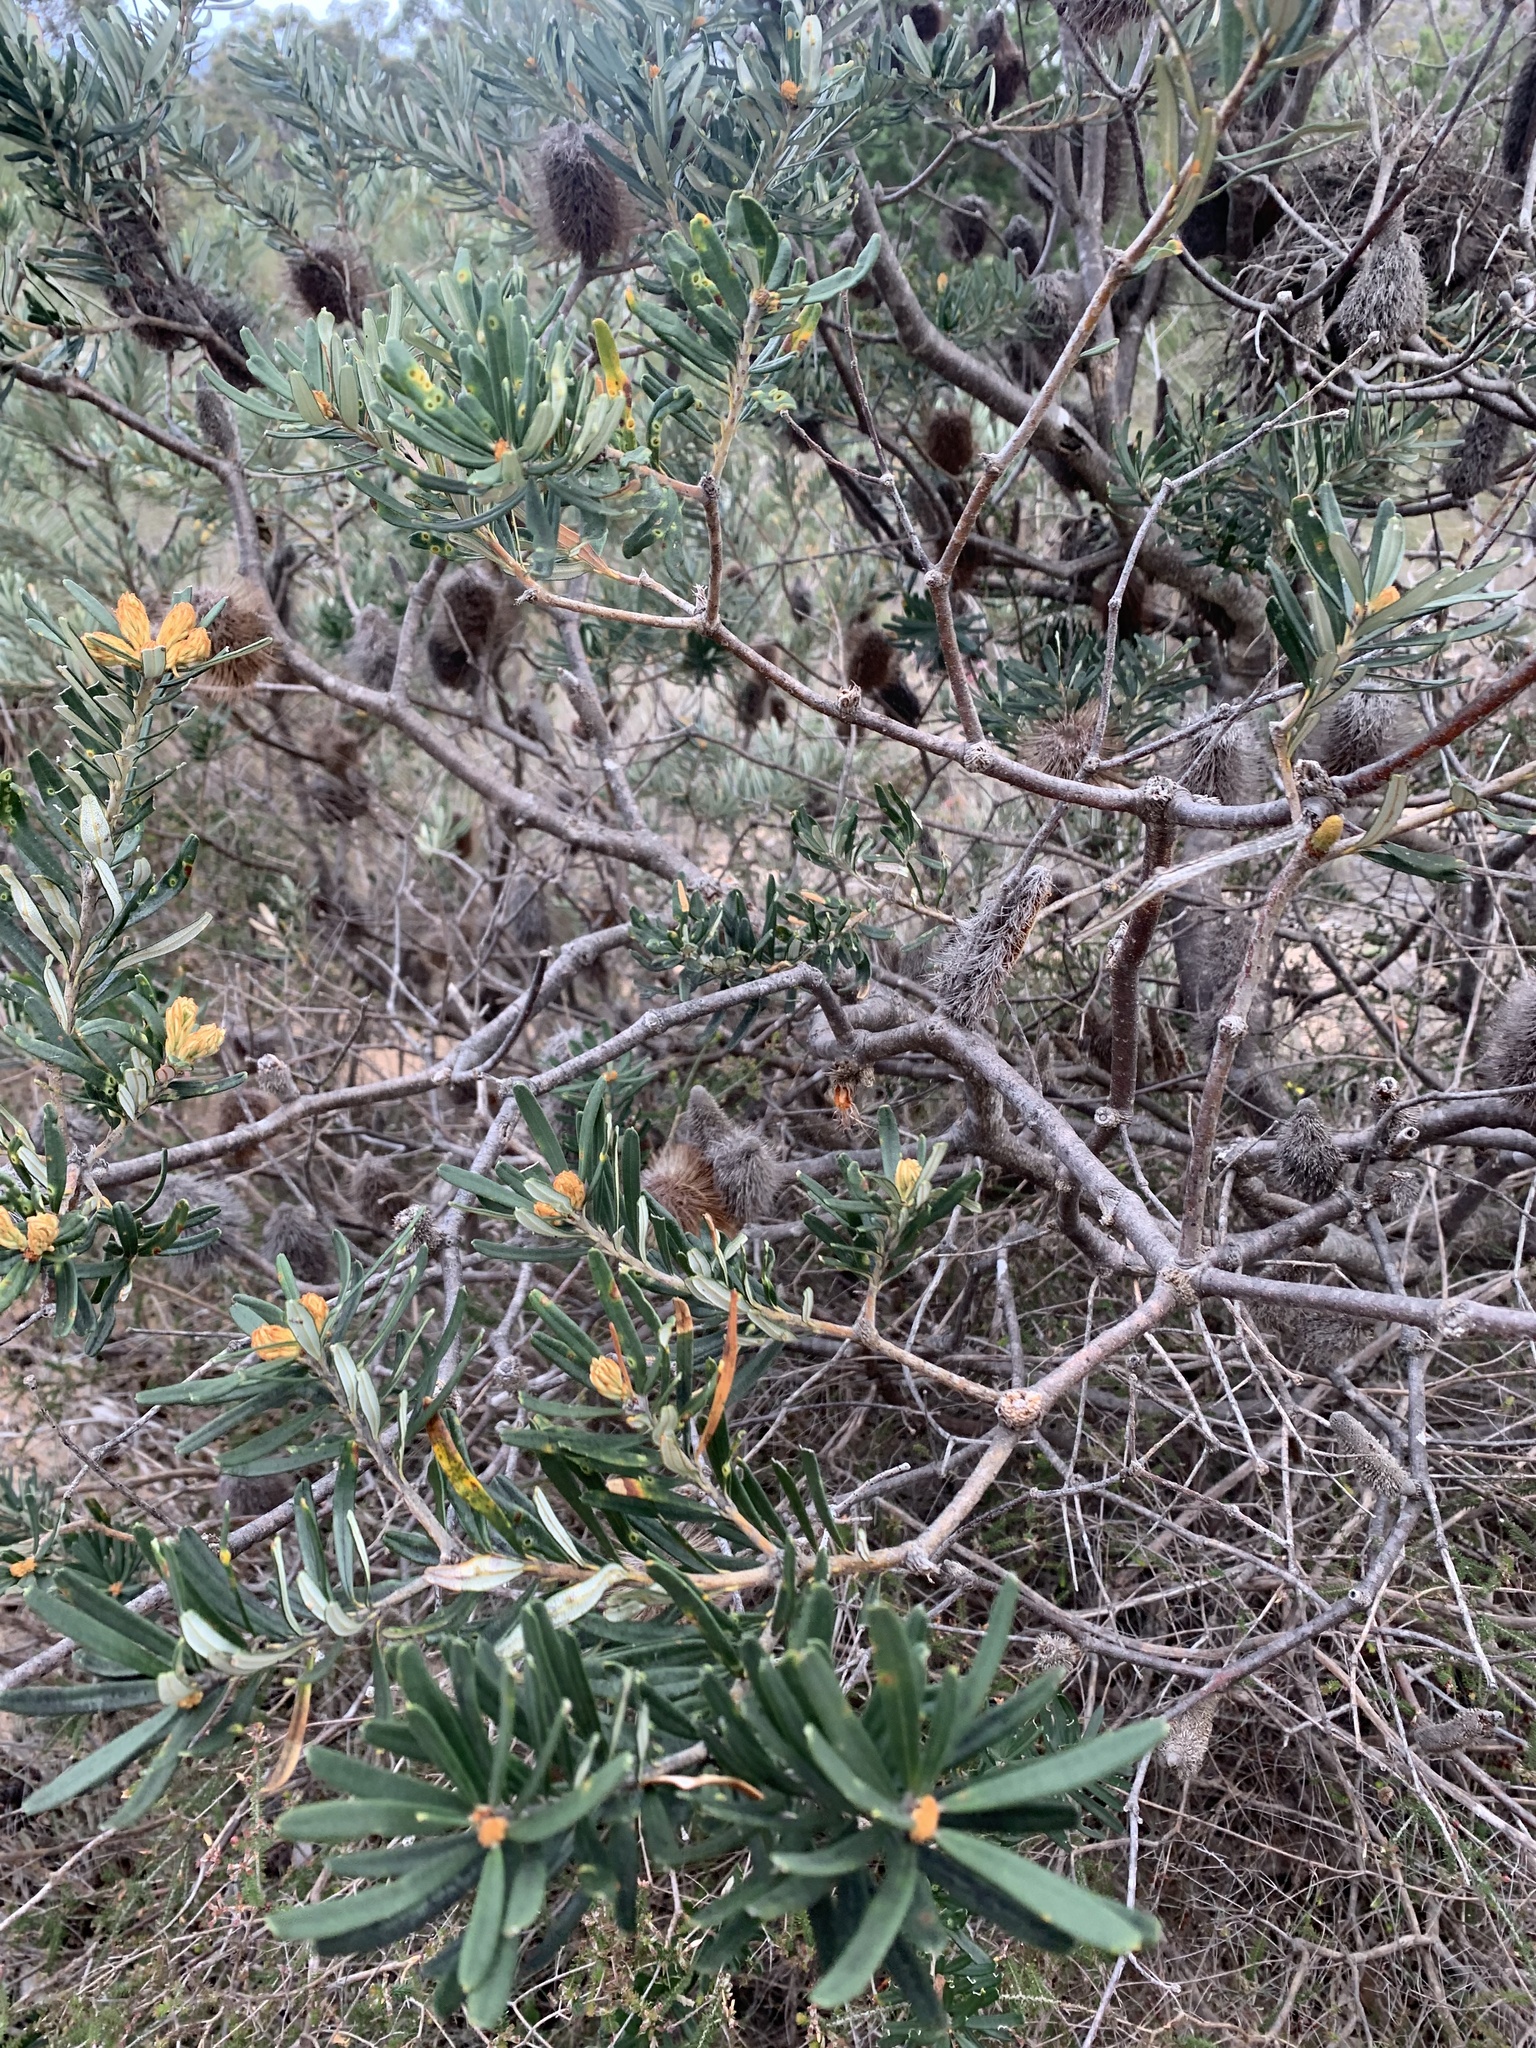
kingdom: Plantae
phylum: Tracheophyta
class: Magnoliopsida
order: Proteales
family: Proteaceae
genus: Banksia
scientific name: Banksia marginata
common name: Silver banksia
